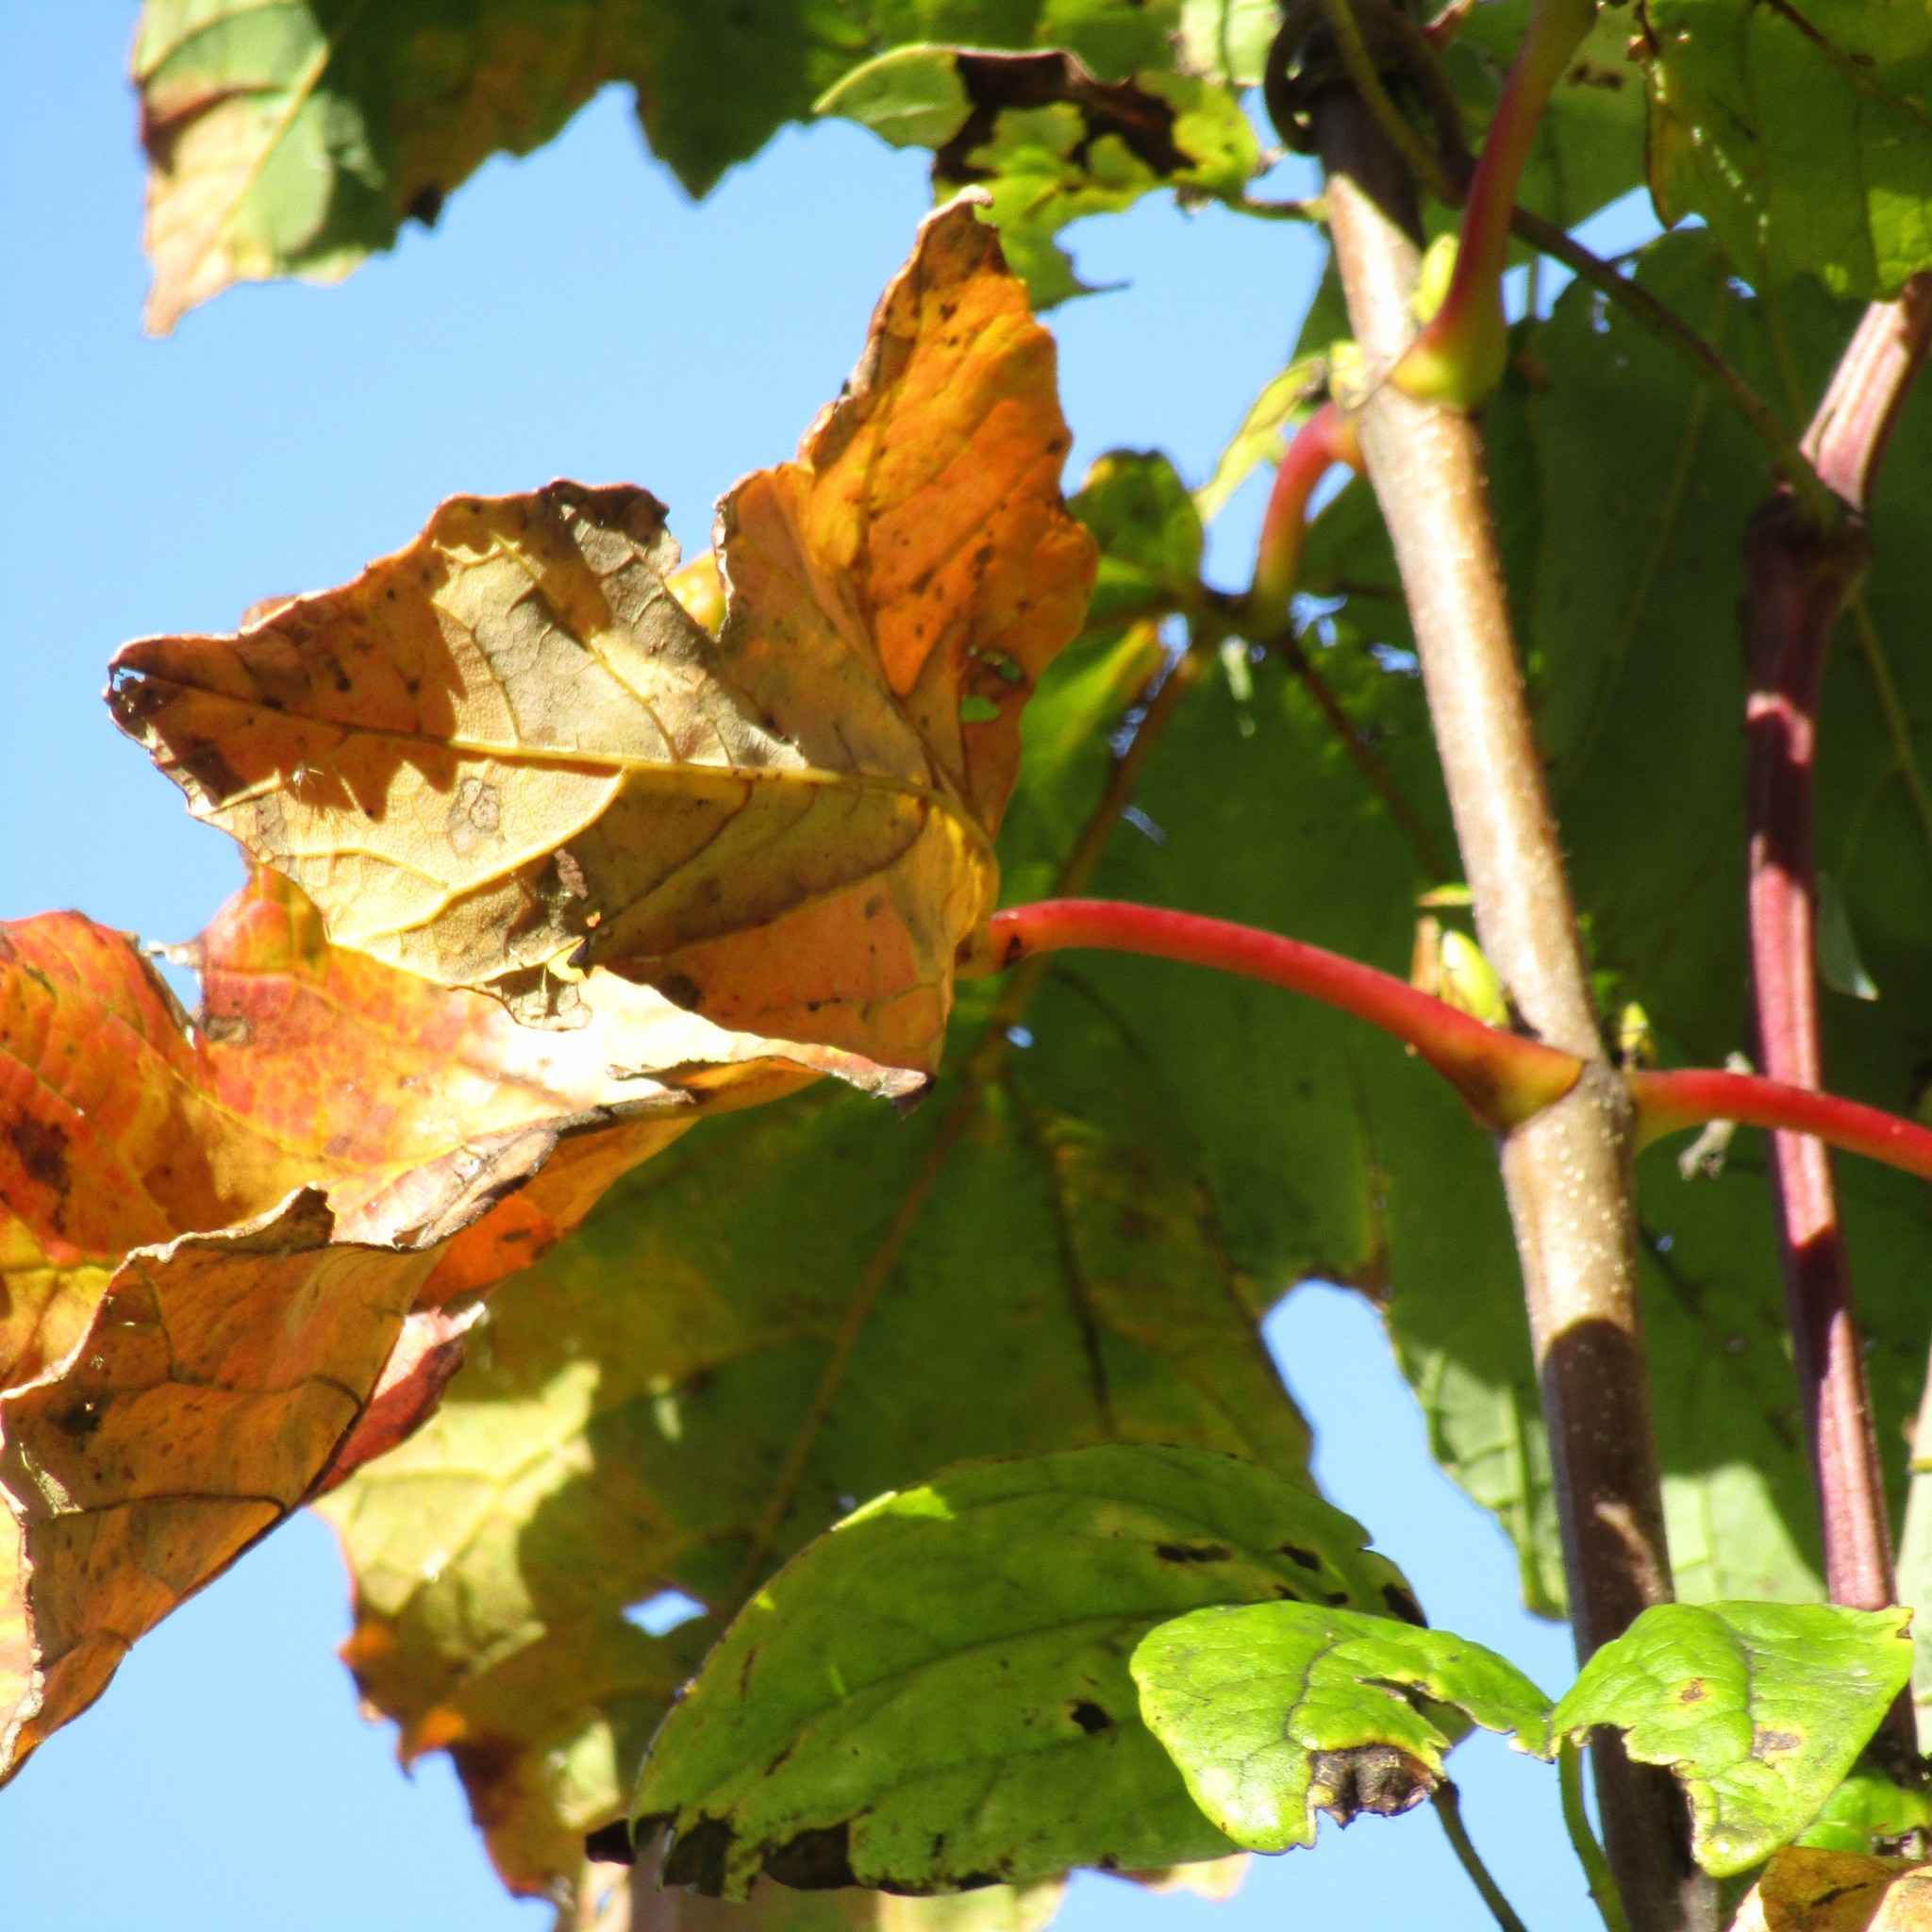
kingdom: Plantae
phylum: Tracheophyta
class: Magnoliopsida
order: Sapindales
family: Sapindaceae
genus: Acer
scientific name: Acer pseudoplatanus
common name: Sycamore
